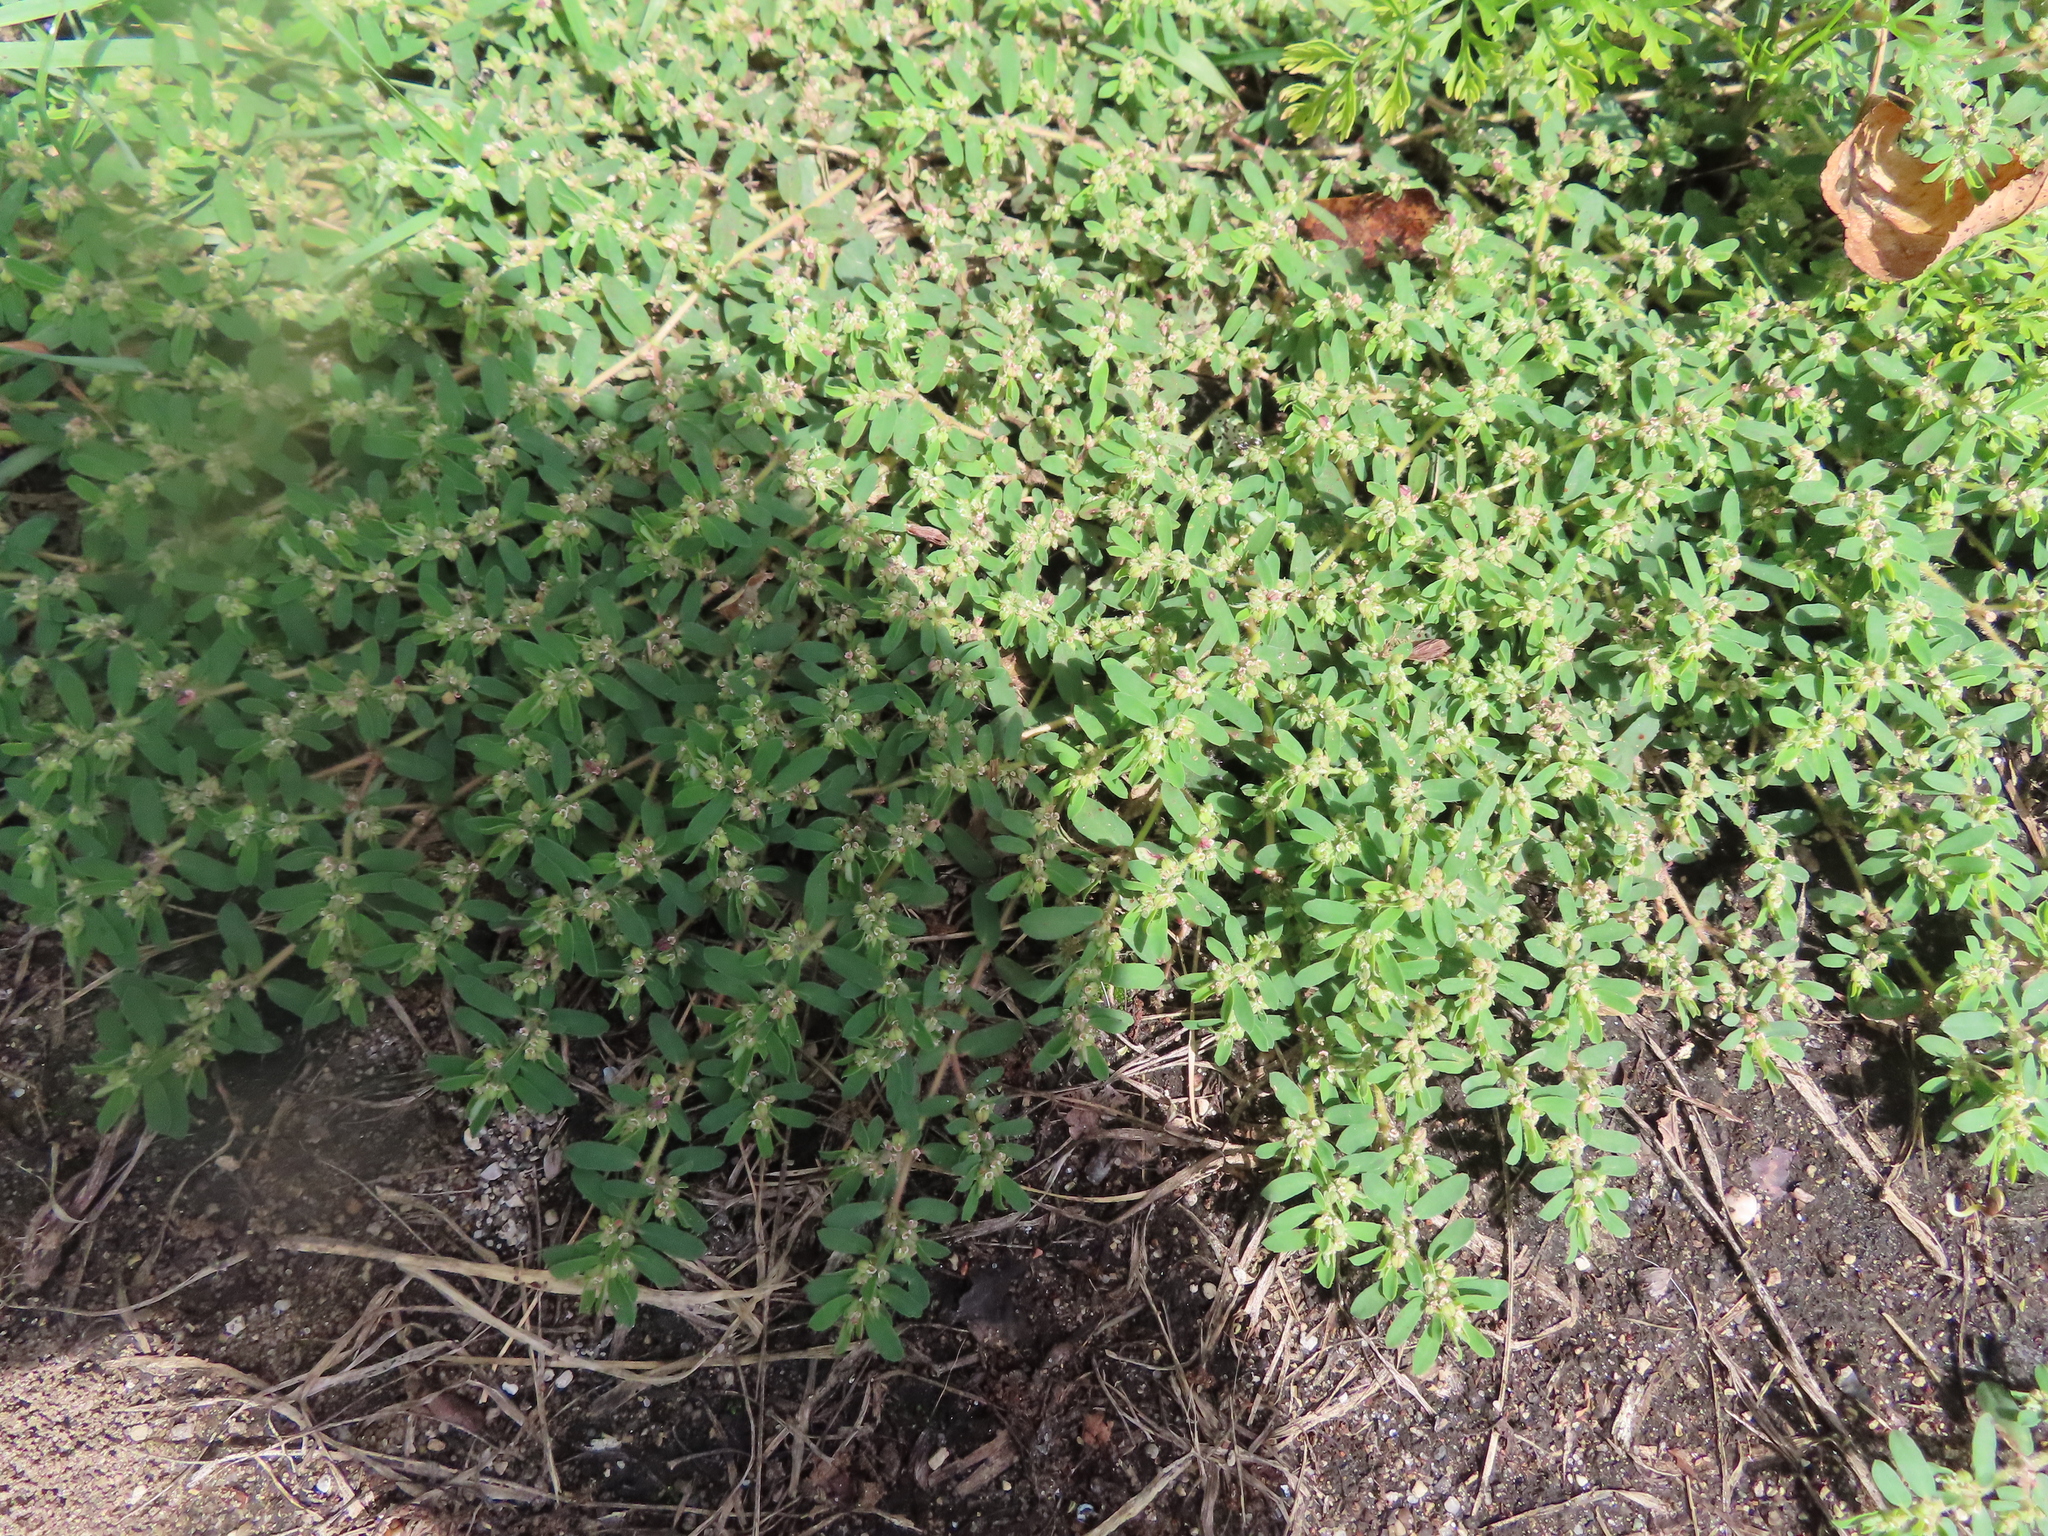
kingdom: Plantae
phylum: Tracheophyta
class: Magnoliopsida
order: Malpighiales
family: Euphorbiaceae
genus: Euphorbia
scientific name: Euphorbia maculata
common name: Spotted spurge
